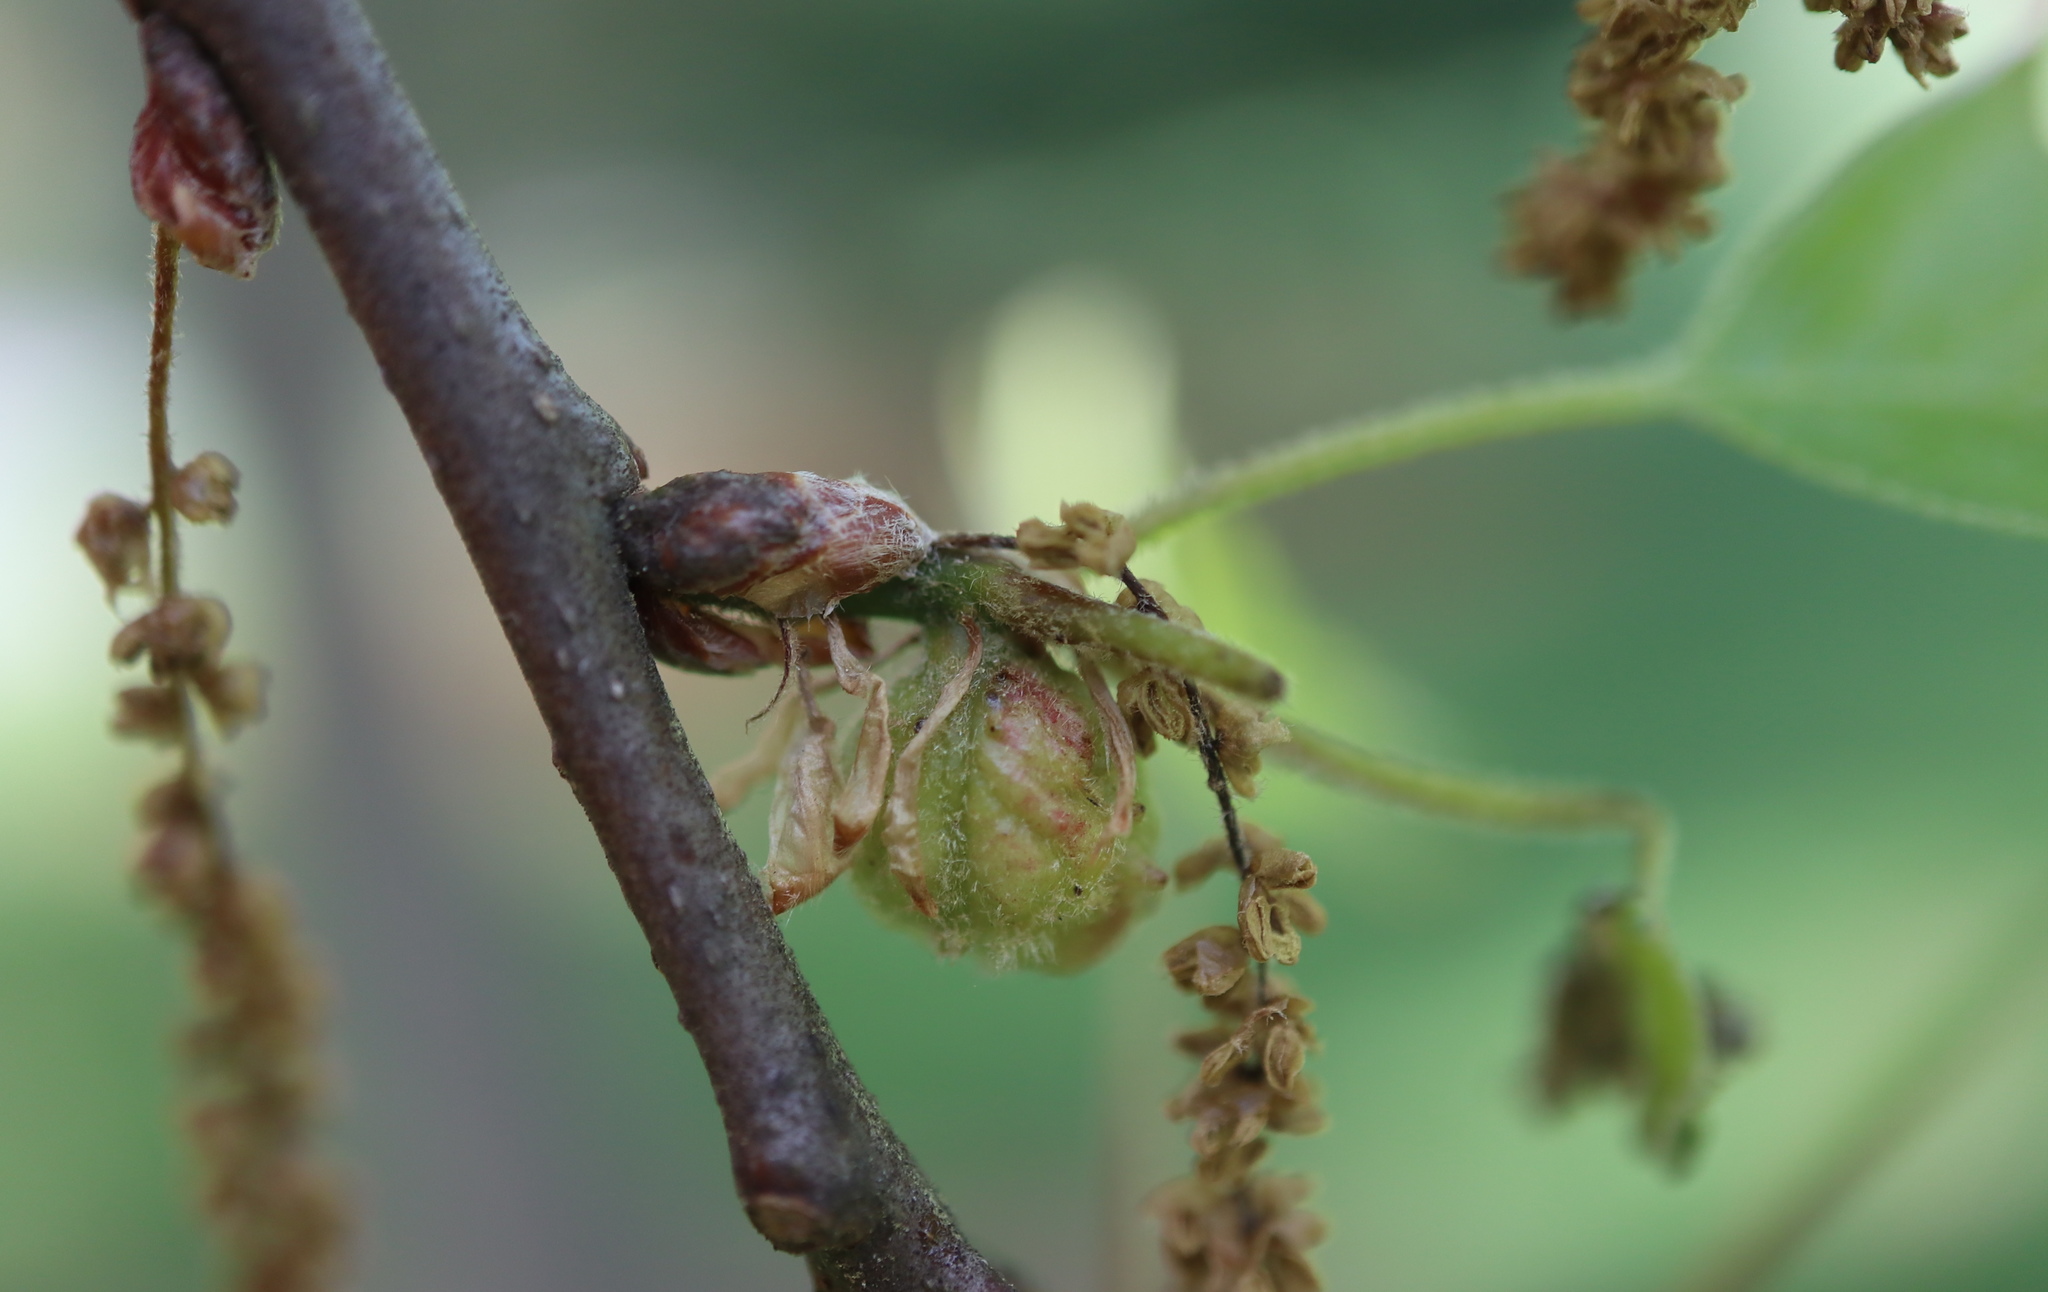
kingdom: Animalia
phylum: Arthropoda
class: Insecta
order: Hymenoptera
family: Cynipidae
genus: Dryocosmus
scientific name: Dryocosmus quercuspalustris
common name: Succulent oak gall wasp
